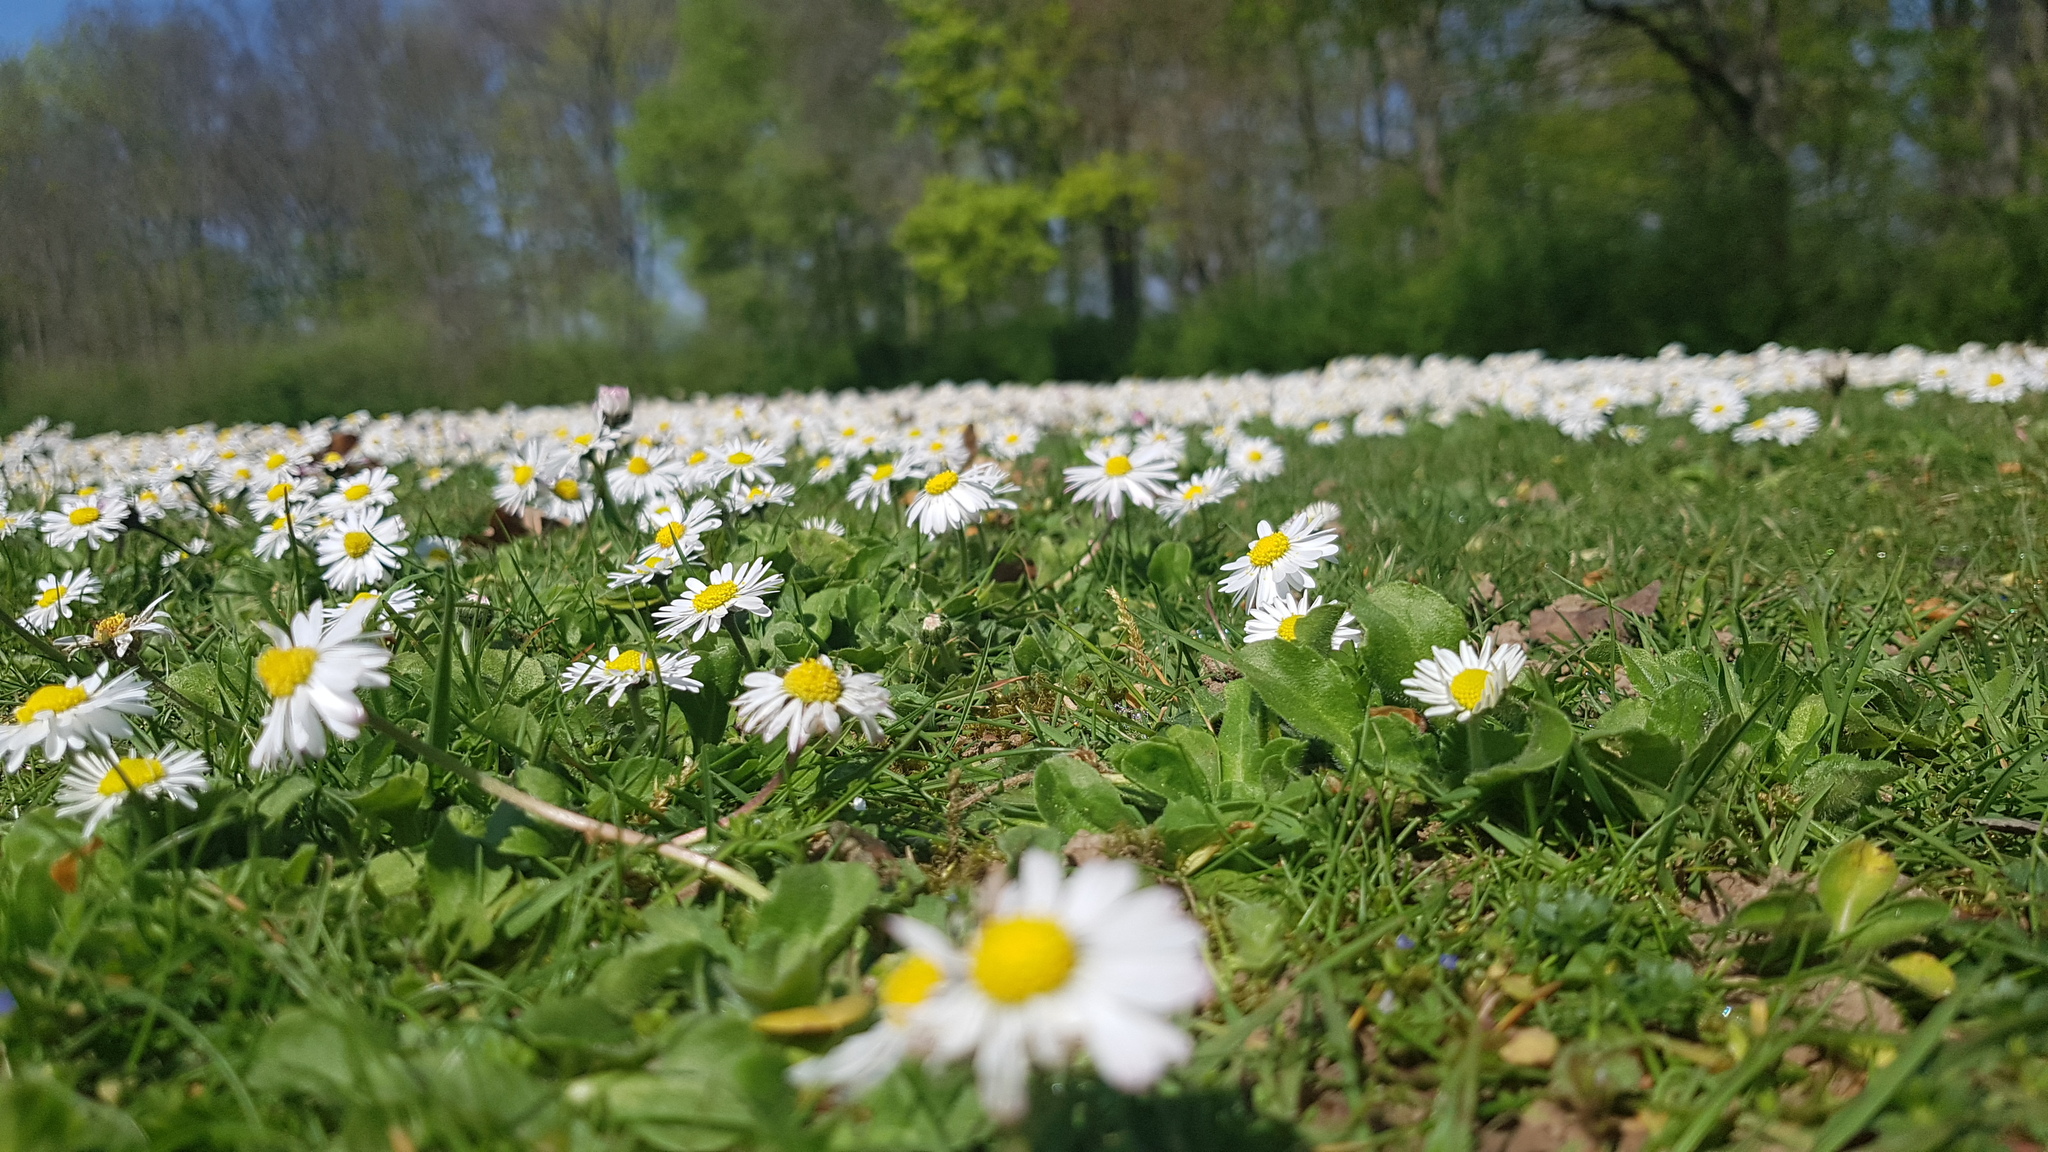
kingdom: Plantae
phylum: Tracheophyta
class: Magnoliopsida
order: Asterales
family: Asteraceae
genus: Bellis
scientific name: Bellis perennis
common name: Lawndaisy
